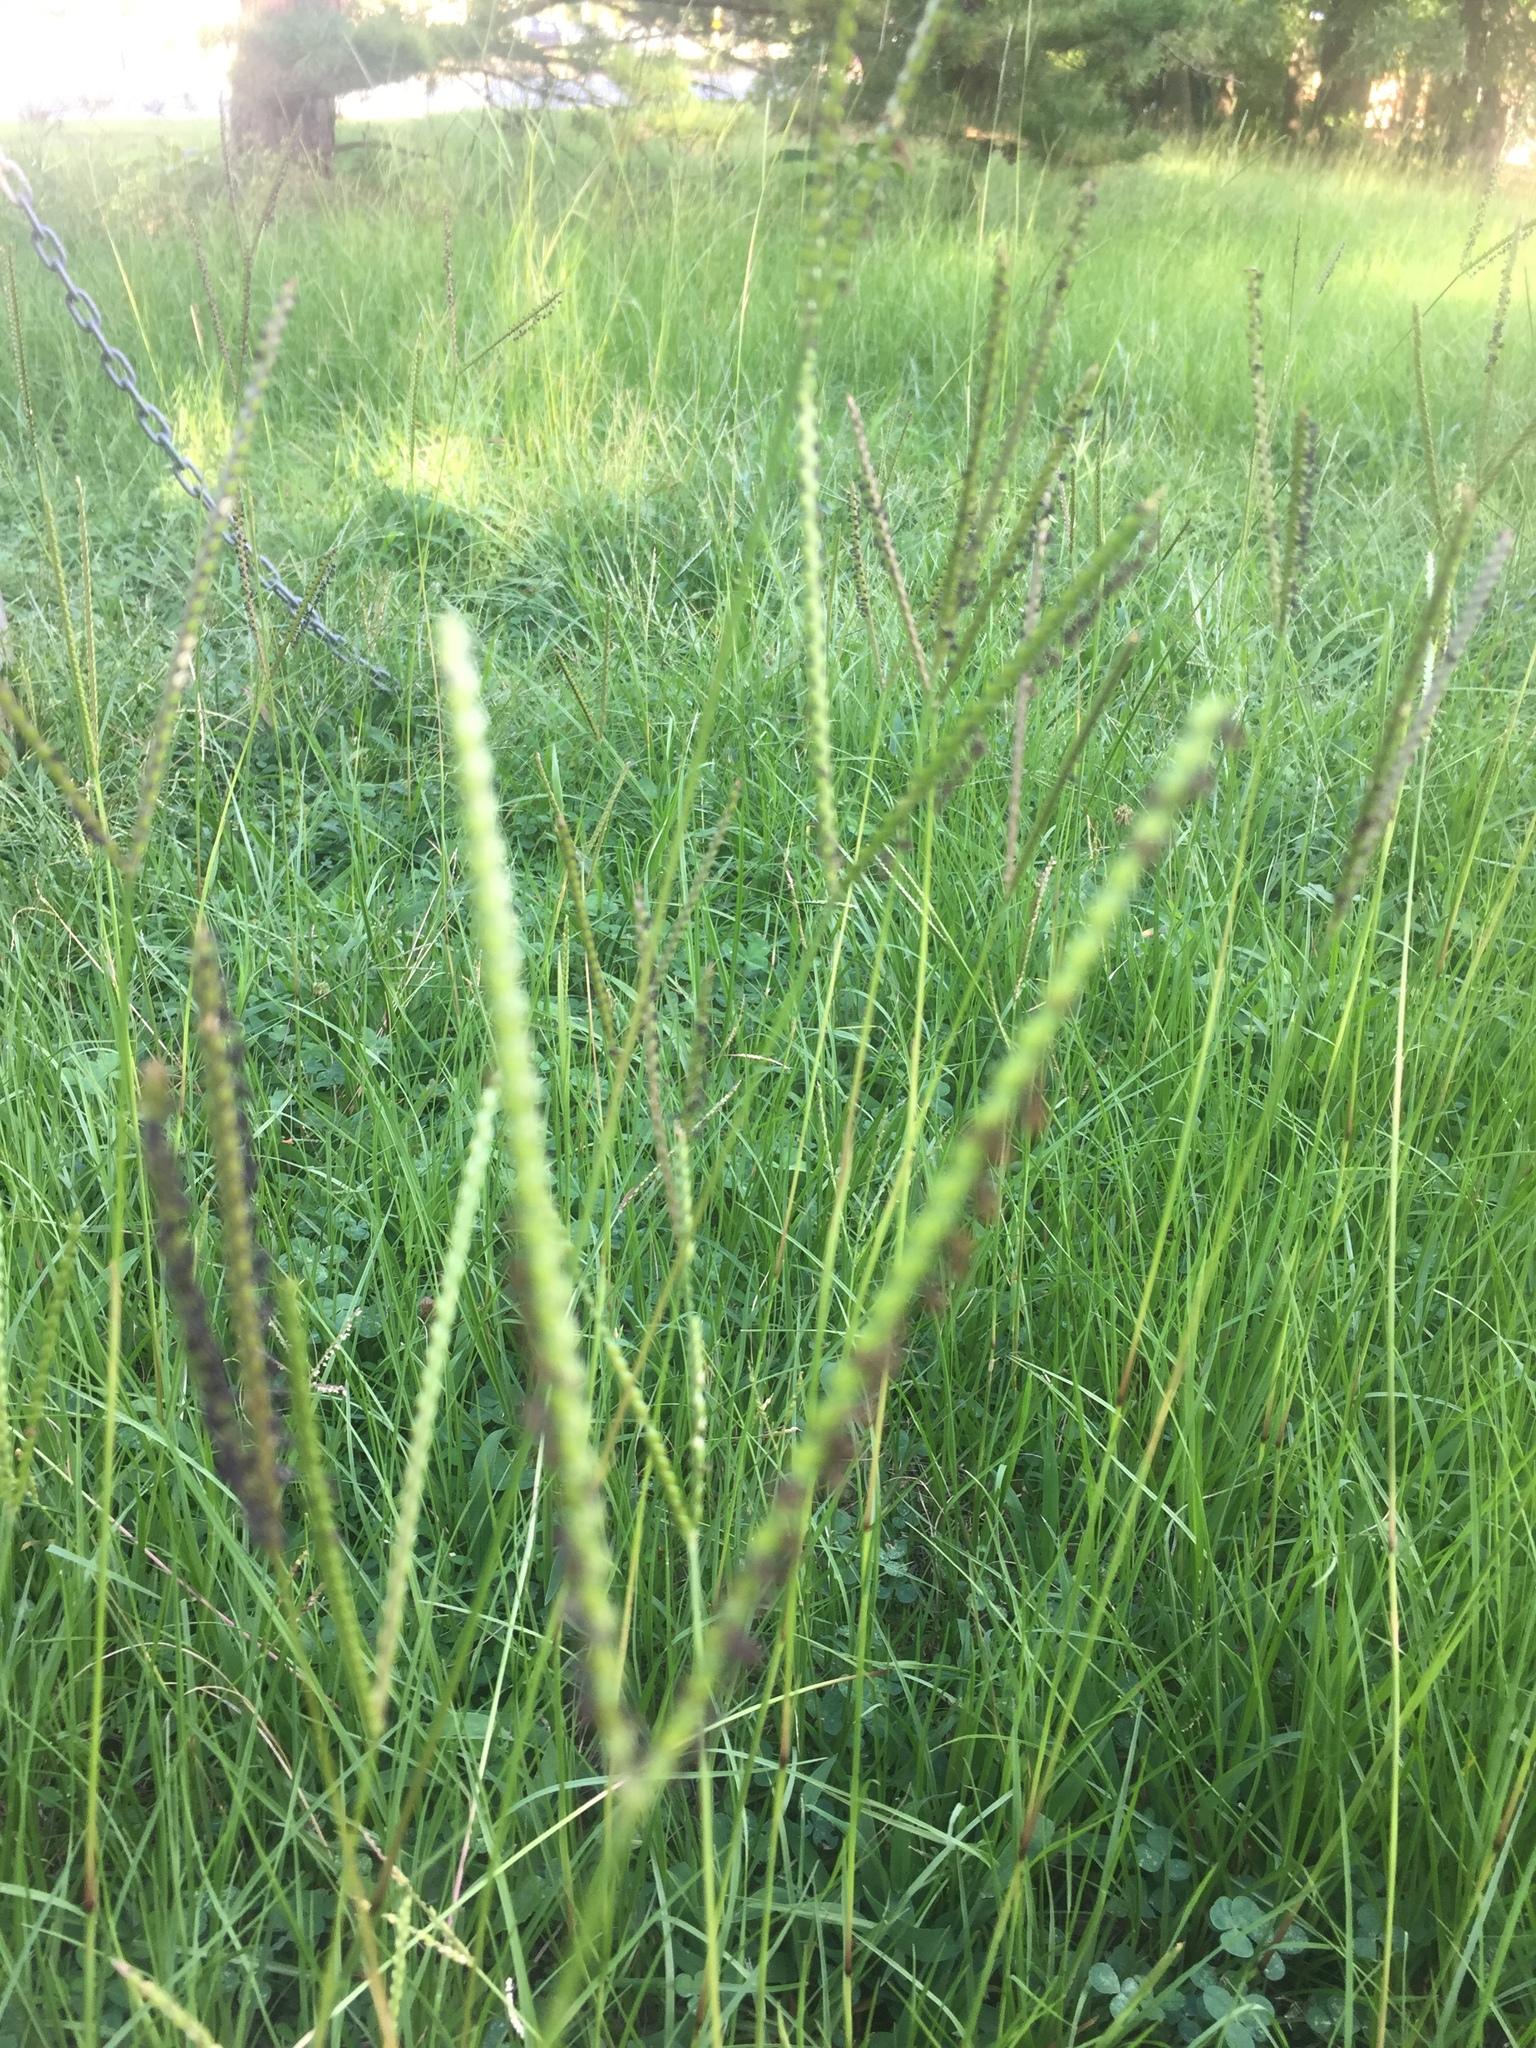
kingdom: Plantae
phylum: Tracheophyta
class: Liliopsida
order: Poales
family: Poaceae
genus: Paspalum
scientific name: Paspalum notatum
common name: Bahiagrass
